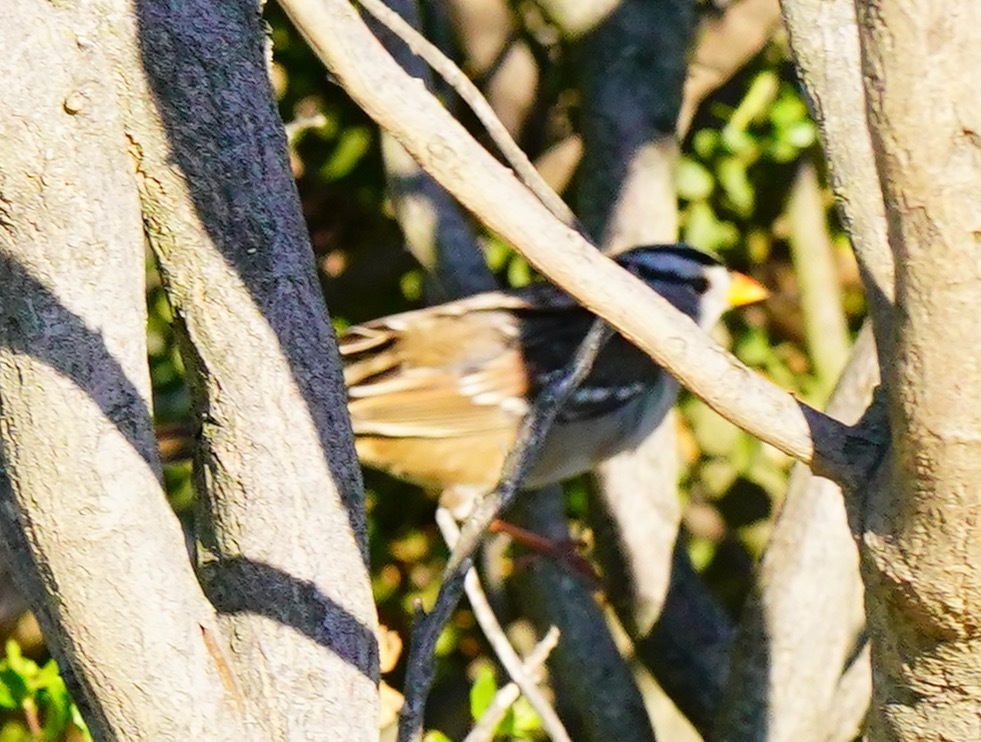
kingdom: Animalia
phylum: Chordata
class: Aves
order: Passeriformes
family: Passerellidae
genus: Zonotrichia
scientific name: Zonotrichia leucophrys
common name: White-crowned sparrow
